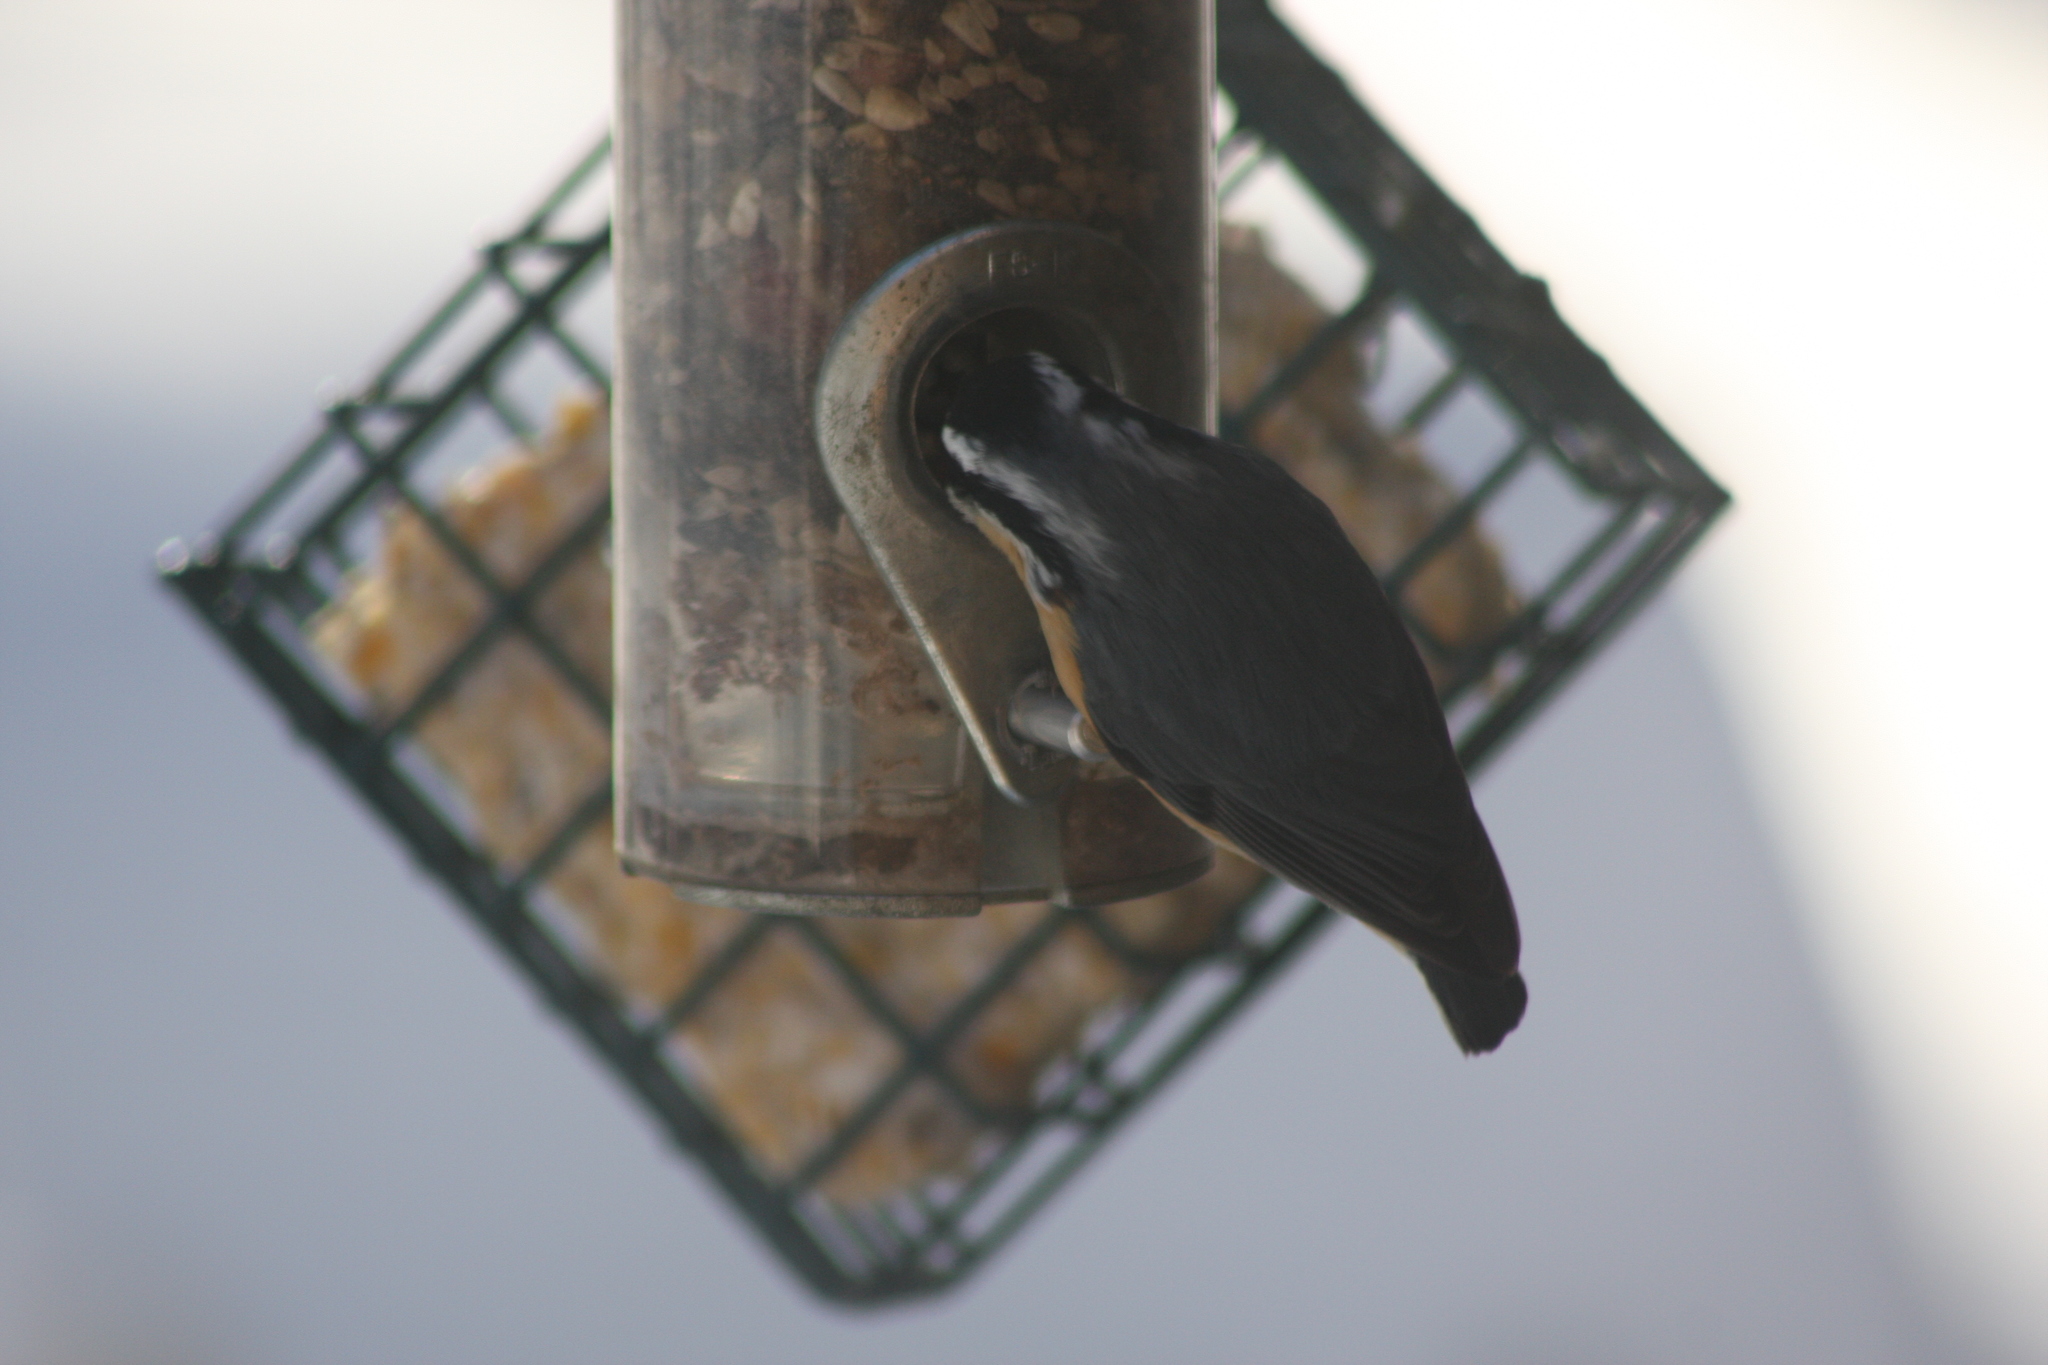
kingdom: Animalia
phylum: Chordata
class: Aves
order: Passeriformes
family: Sittidae
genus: Sitta
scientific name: Sitta canadensis
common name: Red-breasted nuthatch
